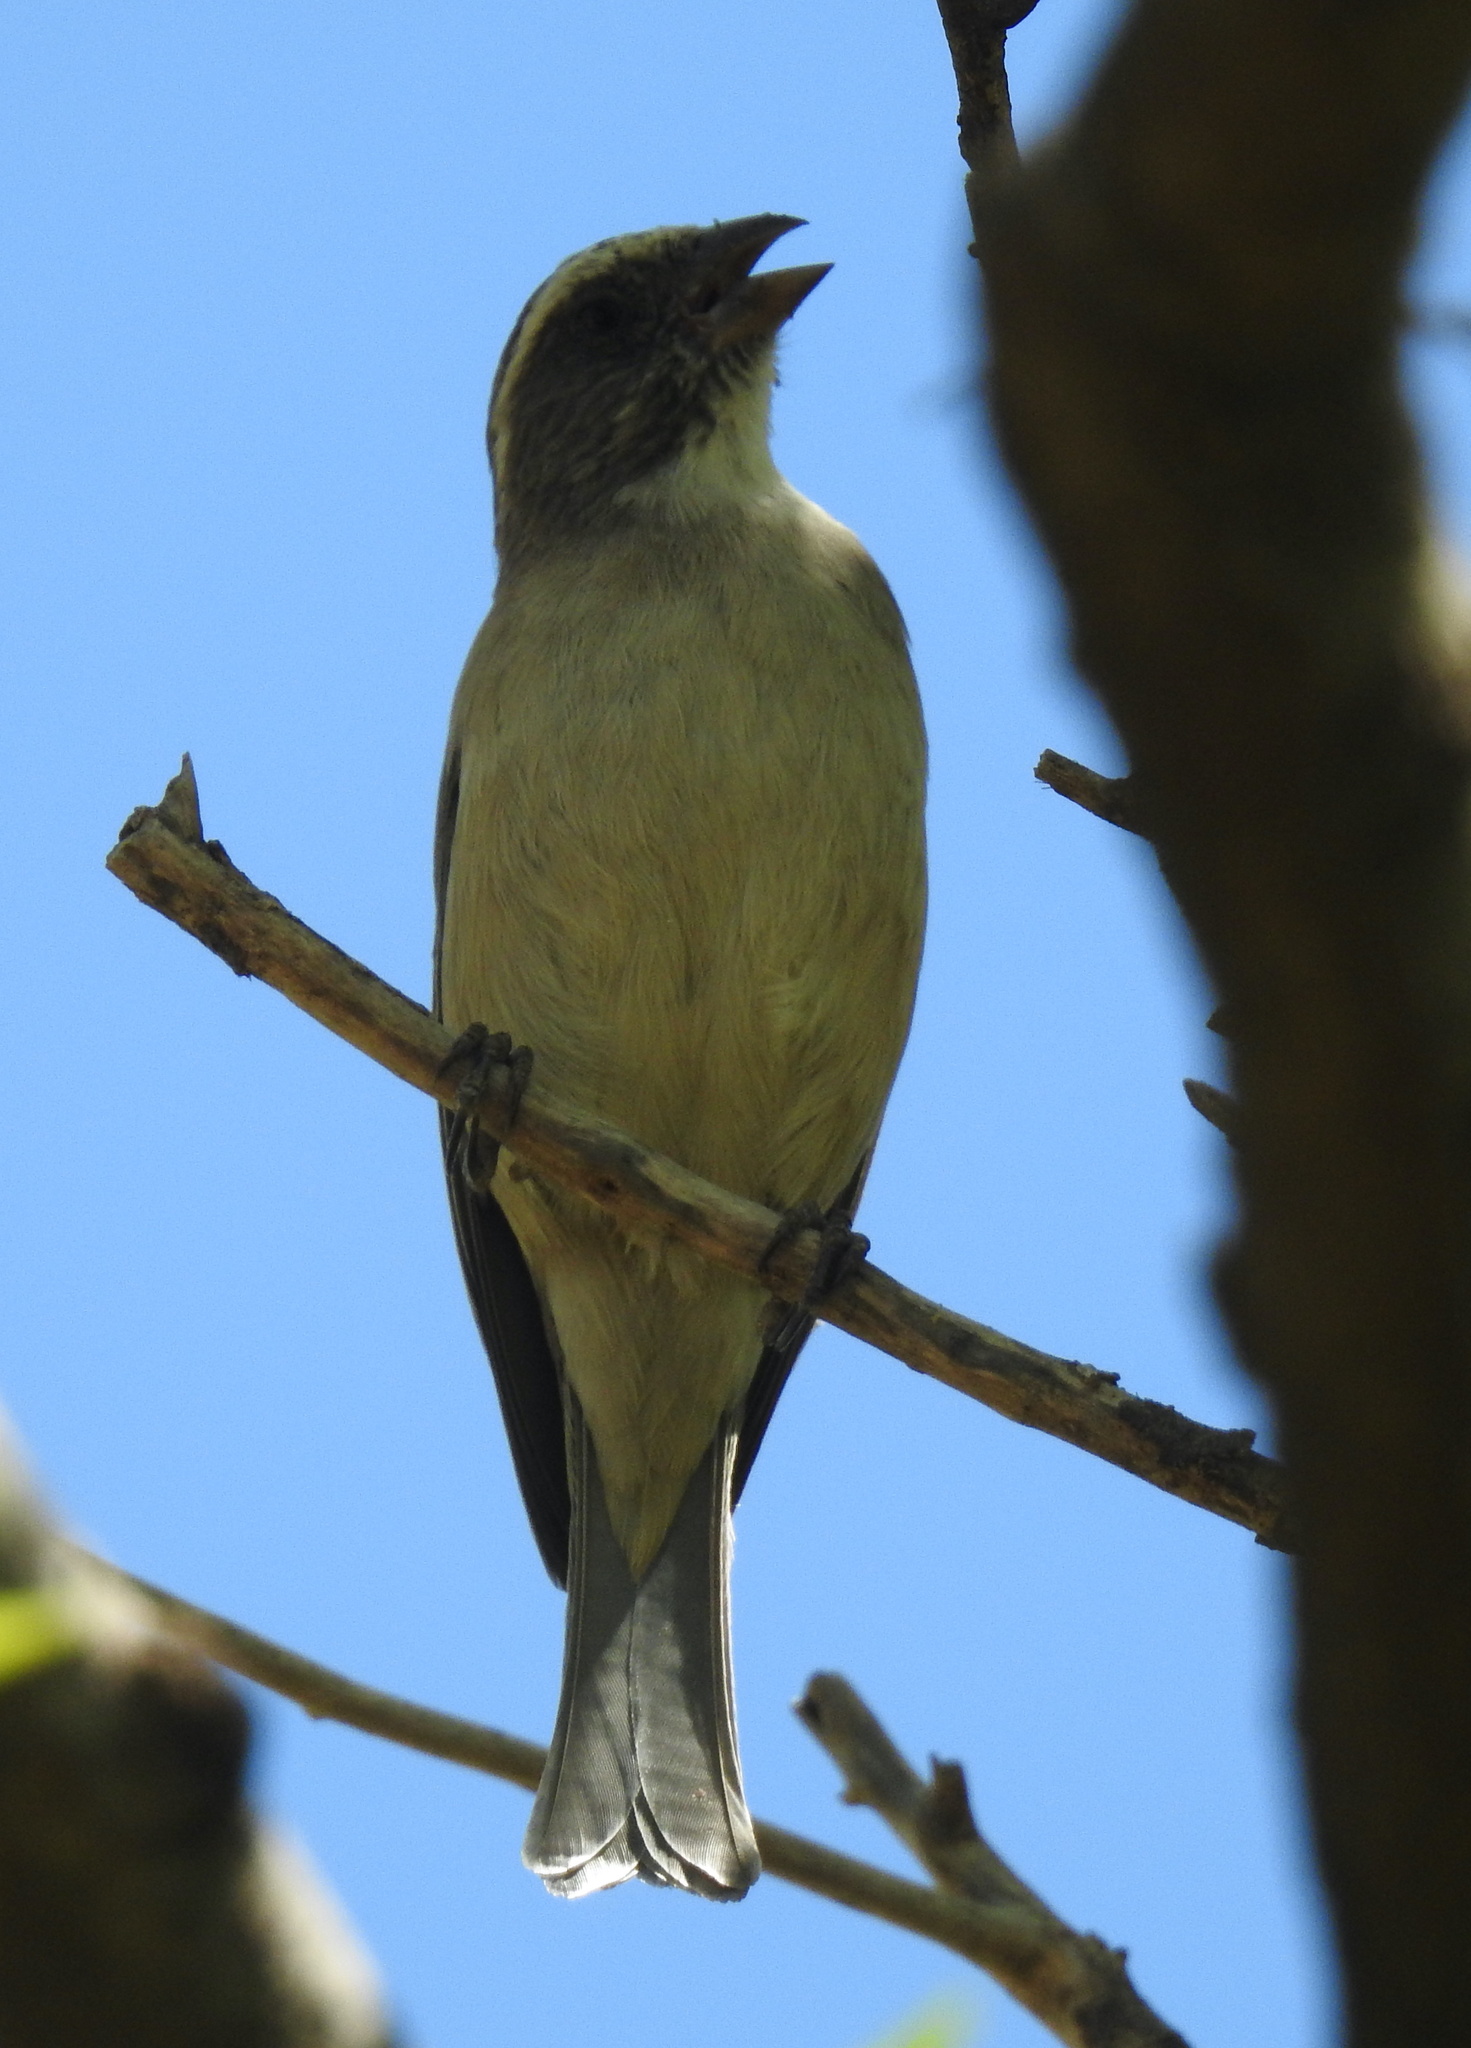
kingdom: Animalia
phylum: Chordata
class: Aves
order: Passeriformes
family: Fringillidae
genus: Crithagra
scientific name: Crithagra gularis
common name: Streaky-headed seedeater
